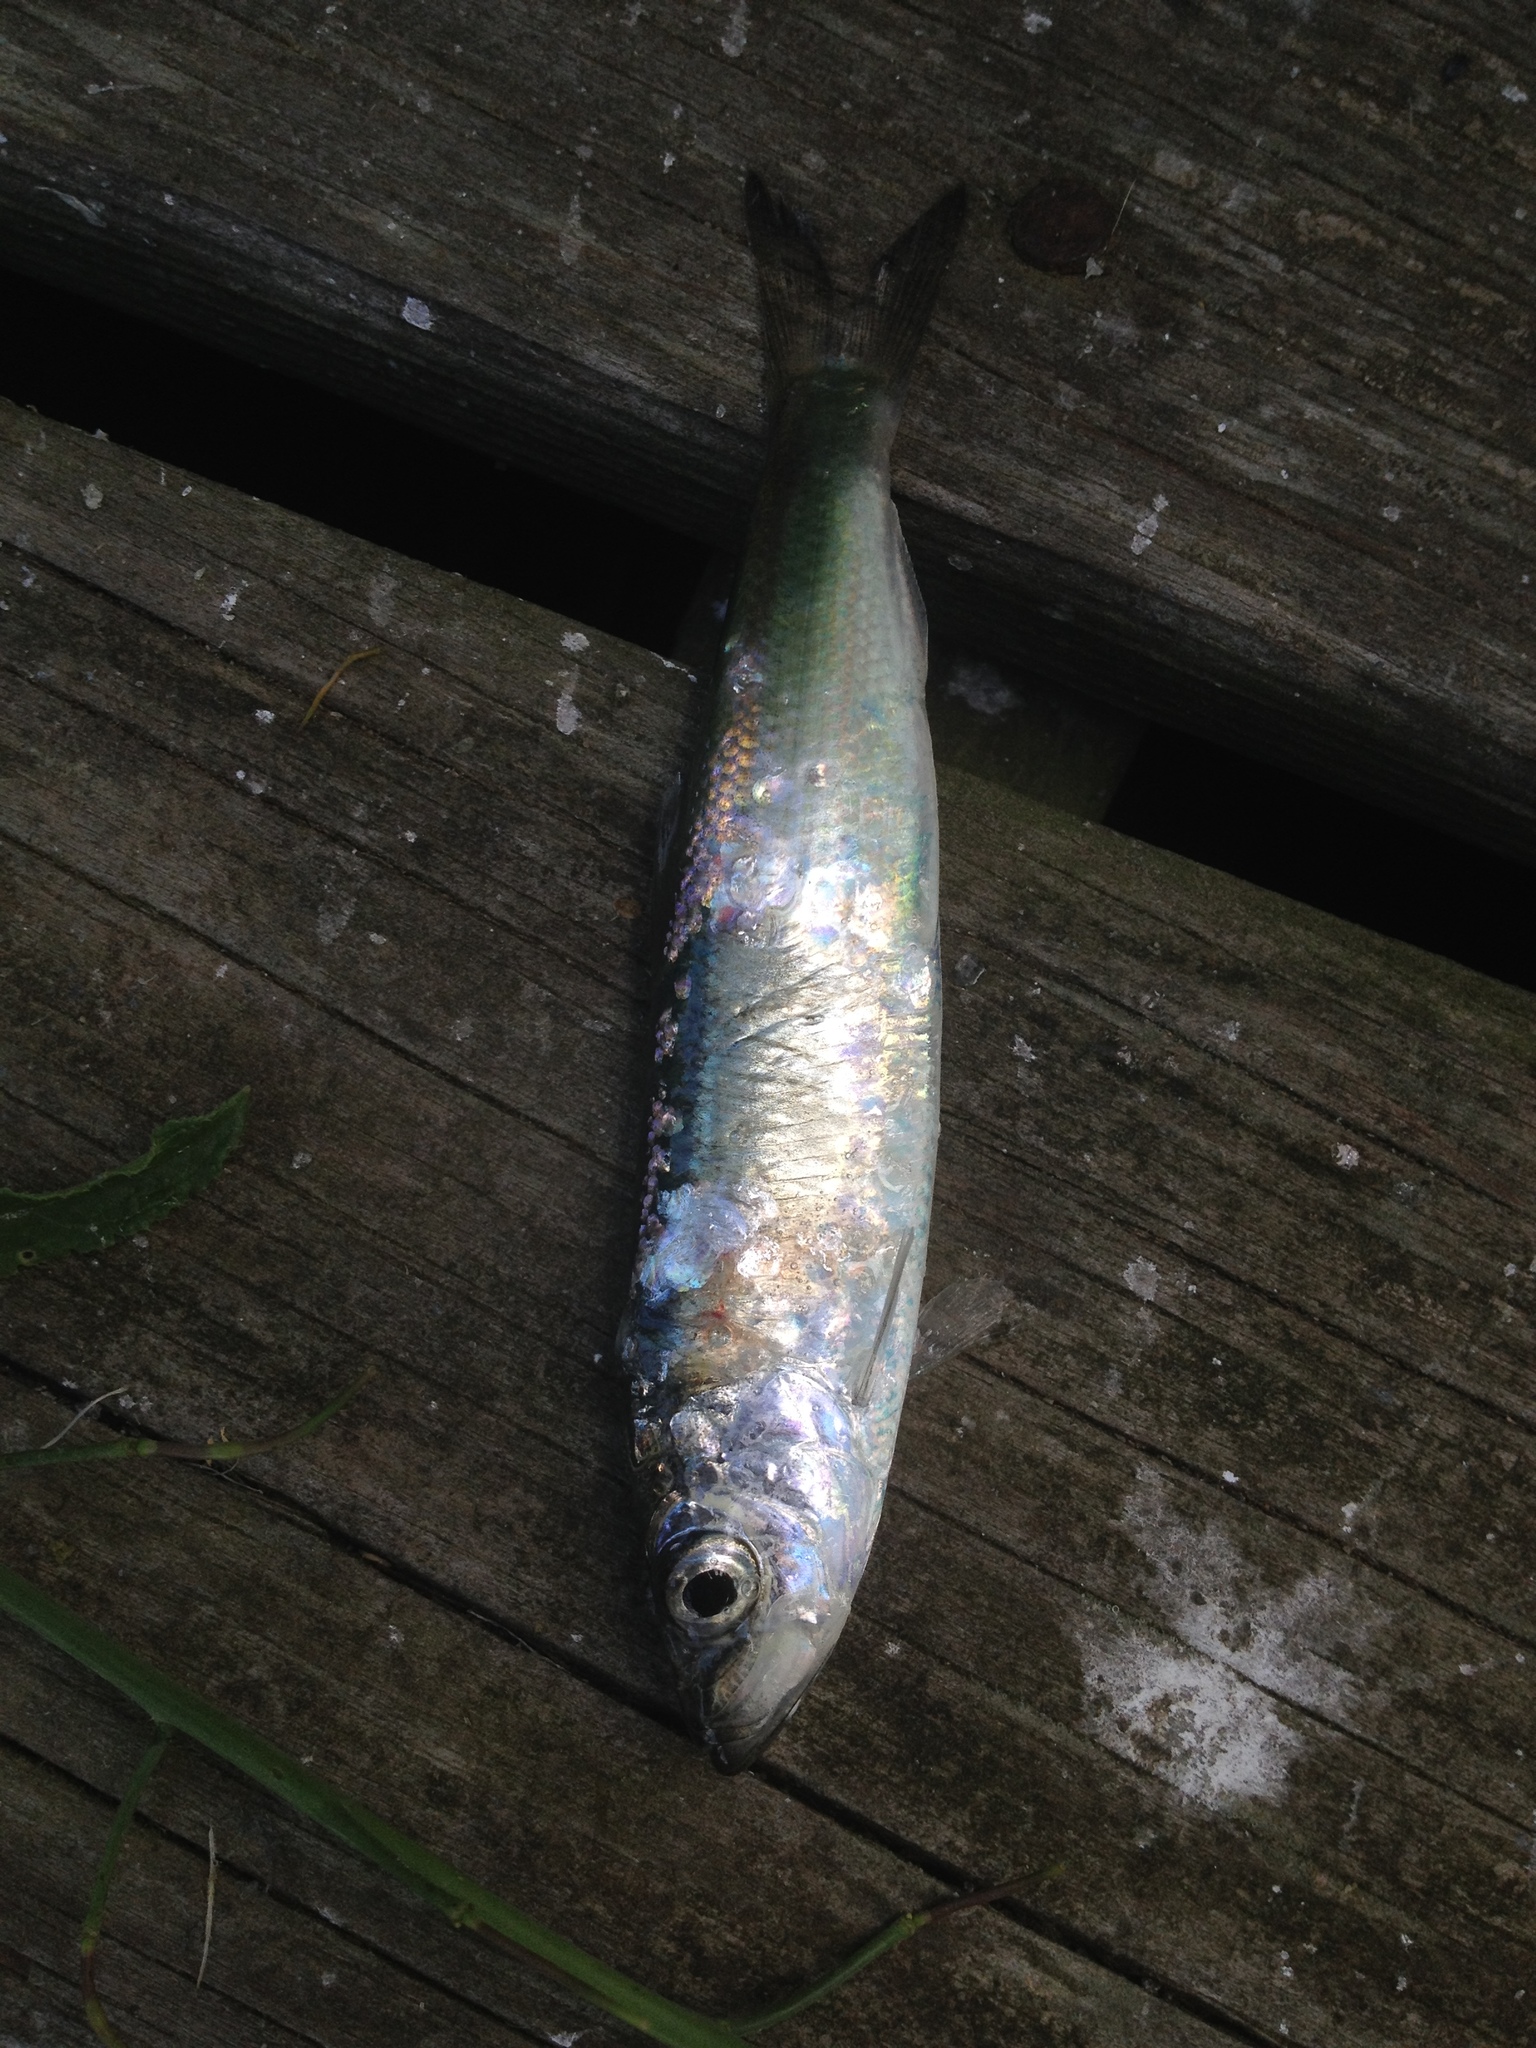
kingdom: Animalia
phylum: Chordata
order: Clupeiformes
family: Clupeidae
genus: Clupea
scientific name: Clupea harengus
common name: Herring
